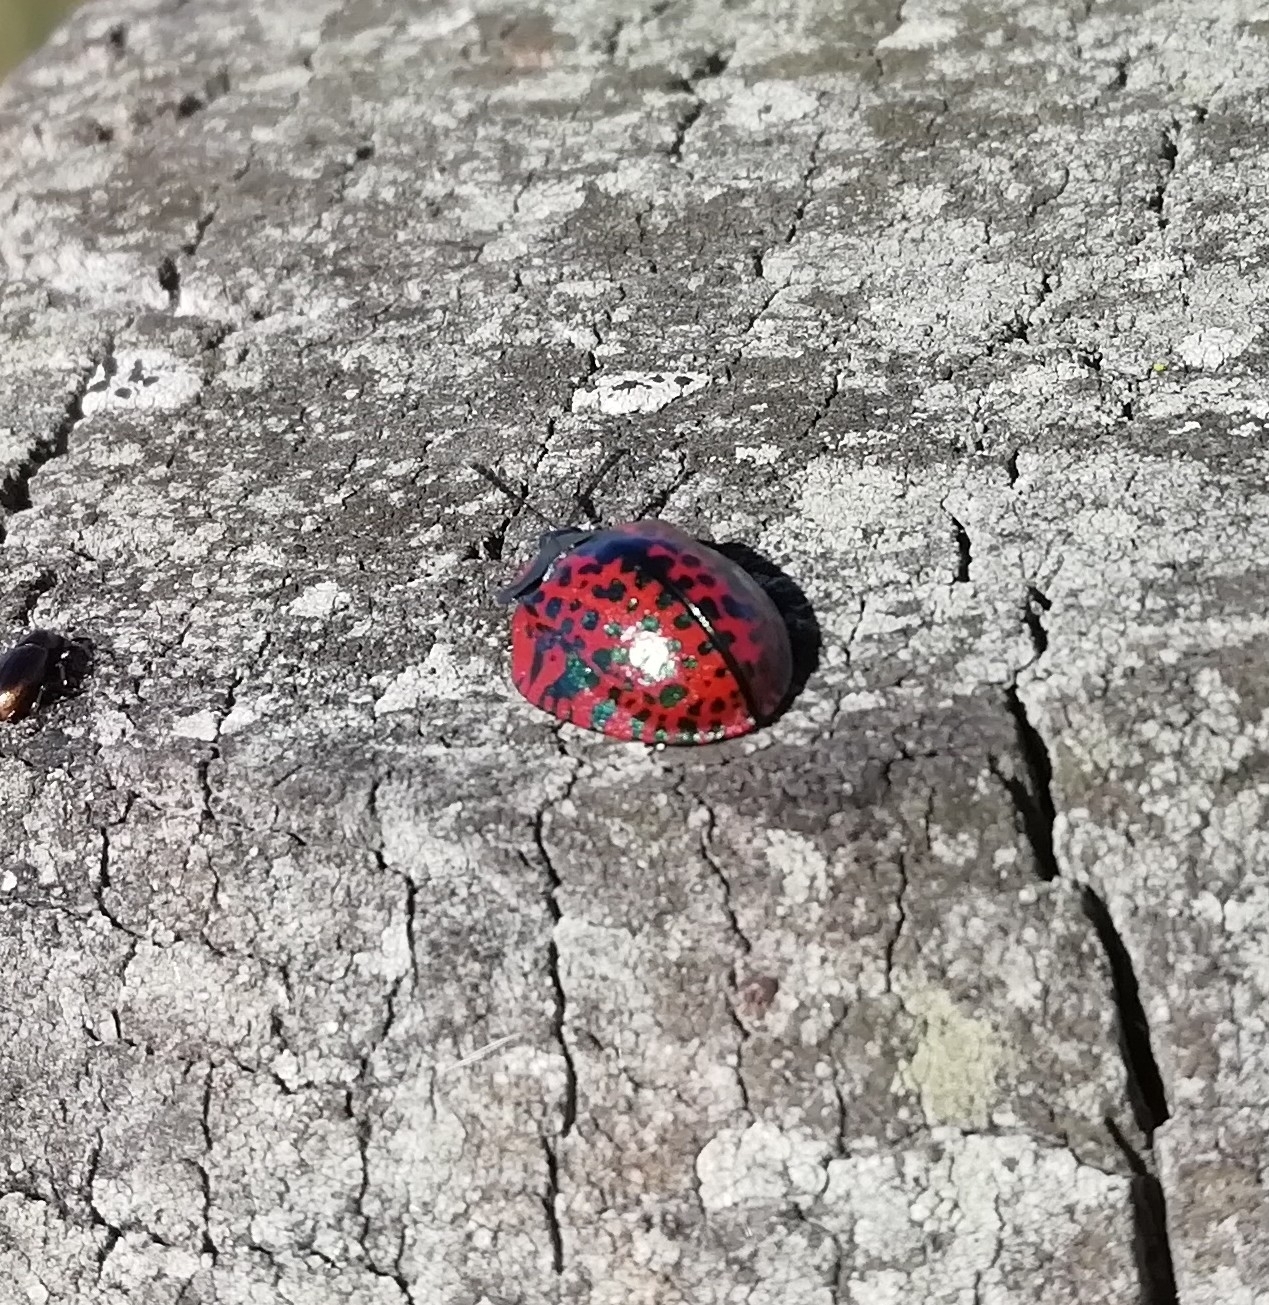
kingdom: Animalia
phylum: Arthropoda
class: Insecta
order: Coleoptera
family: Chrysomelidae
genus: Stolas
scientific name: Stolas lacordairei
